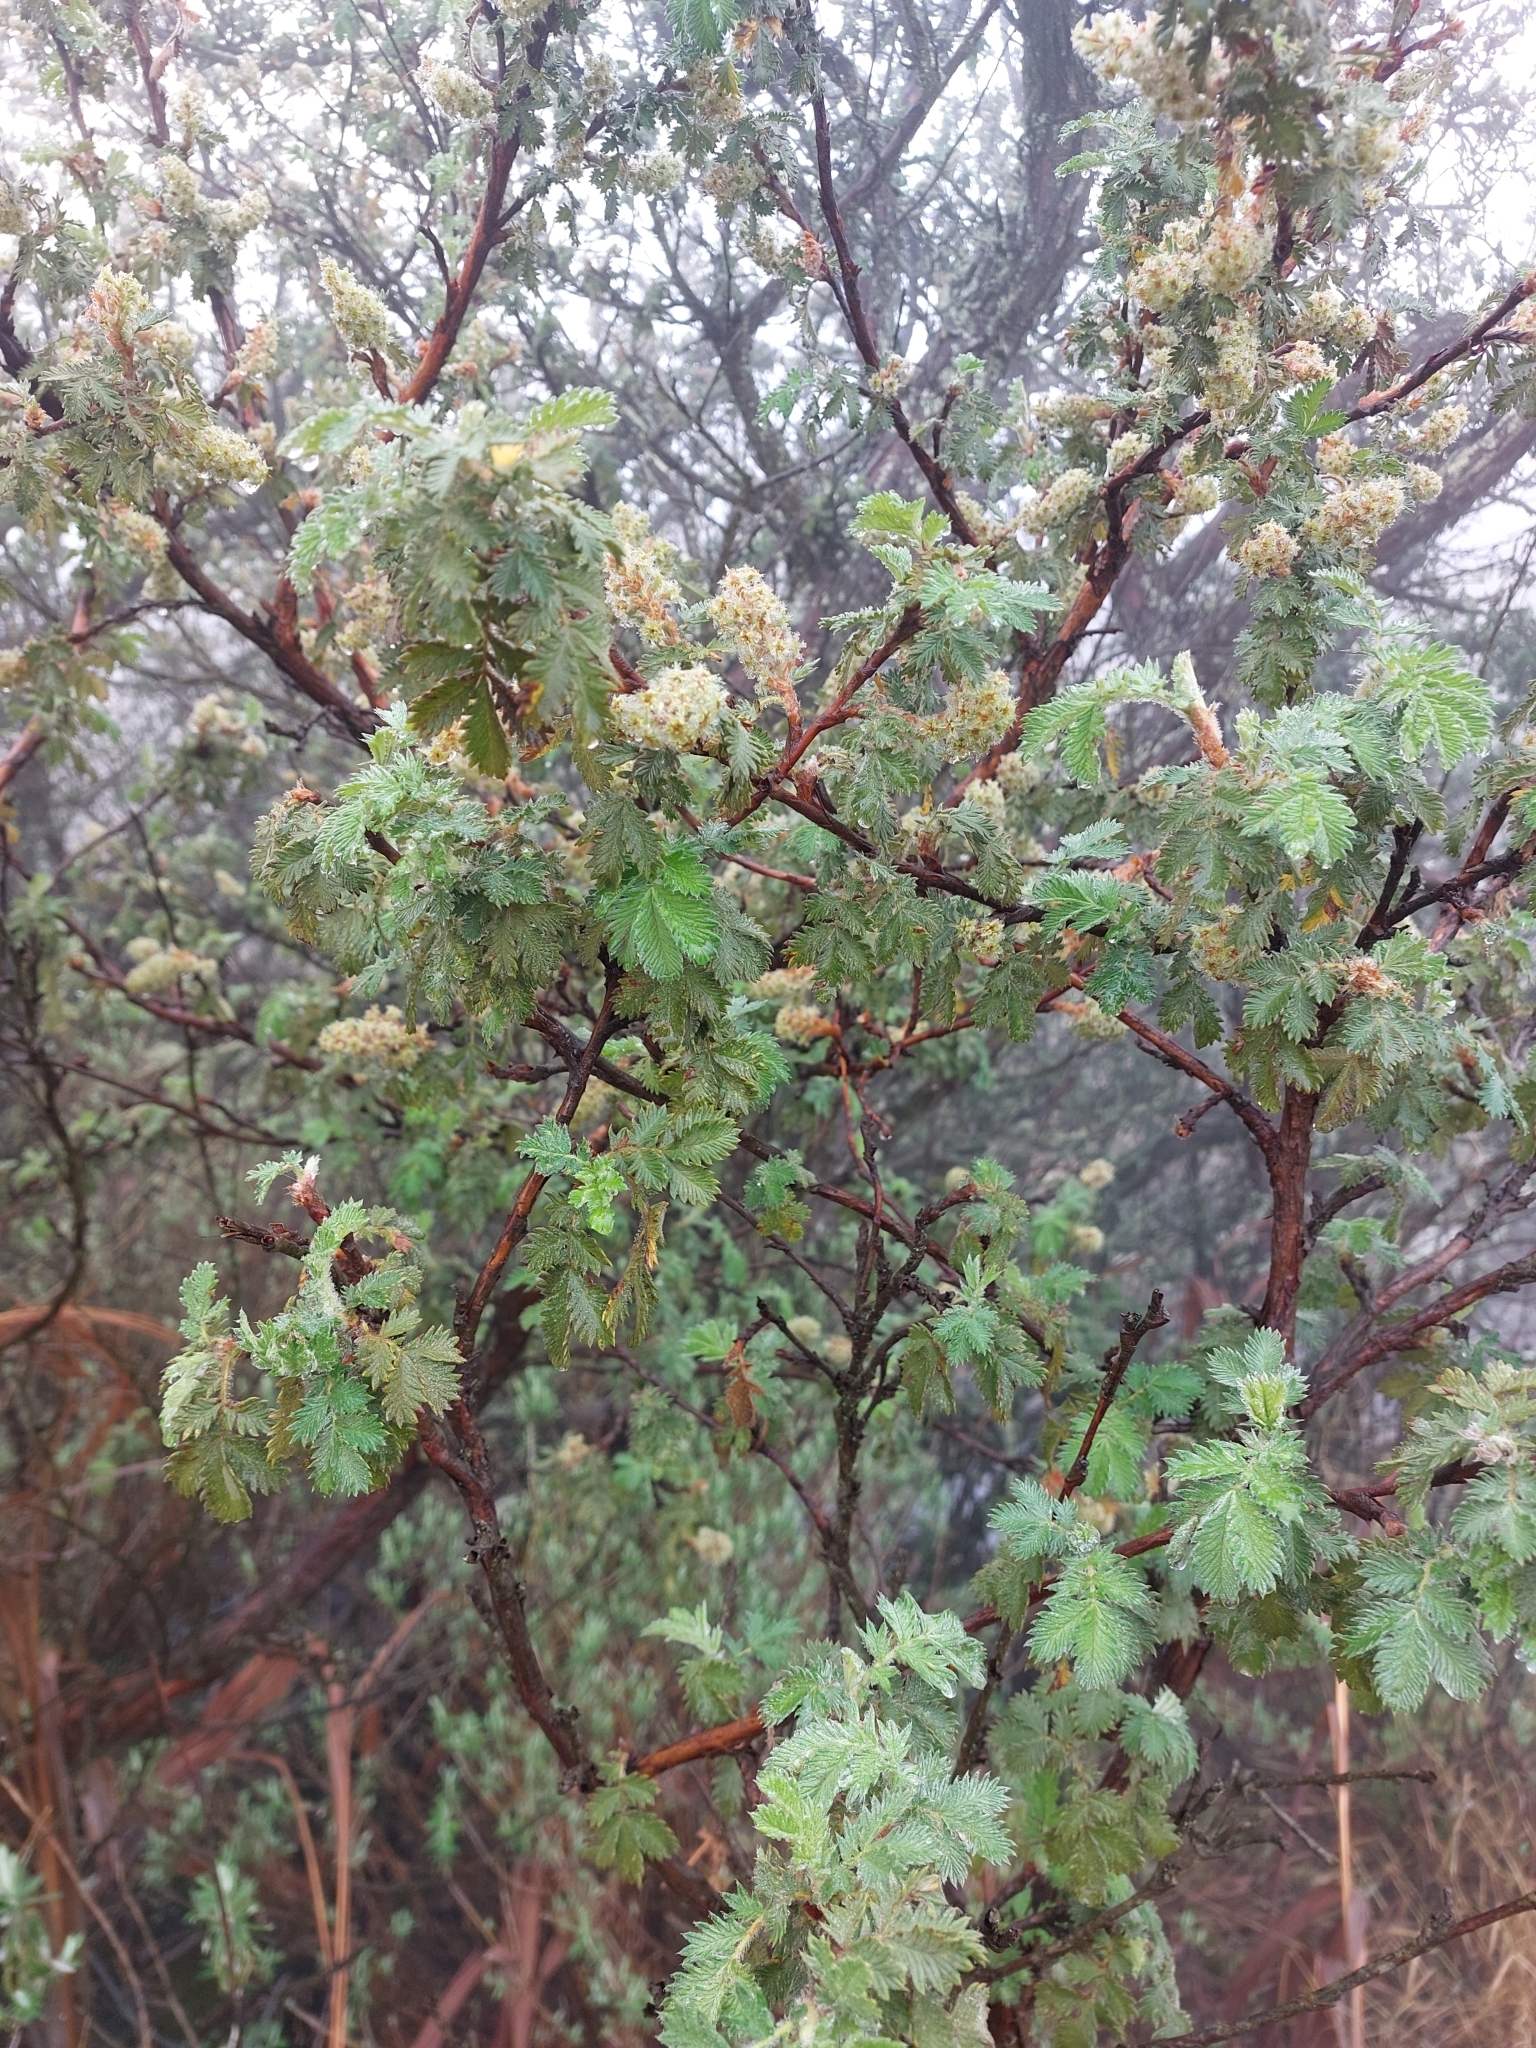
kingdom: Plantae
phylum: Tracheophyta
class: Magnoliopsida
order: Rosales
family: Rosaceae
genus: Leucosidea
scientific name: Leucosidea sericea
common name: Oldwood
